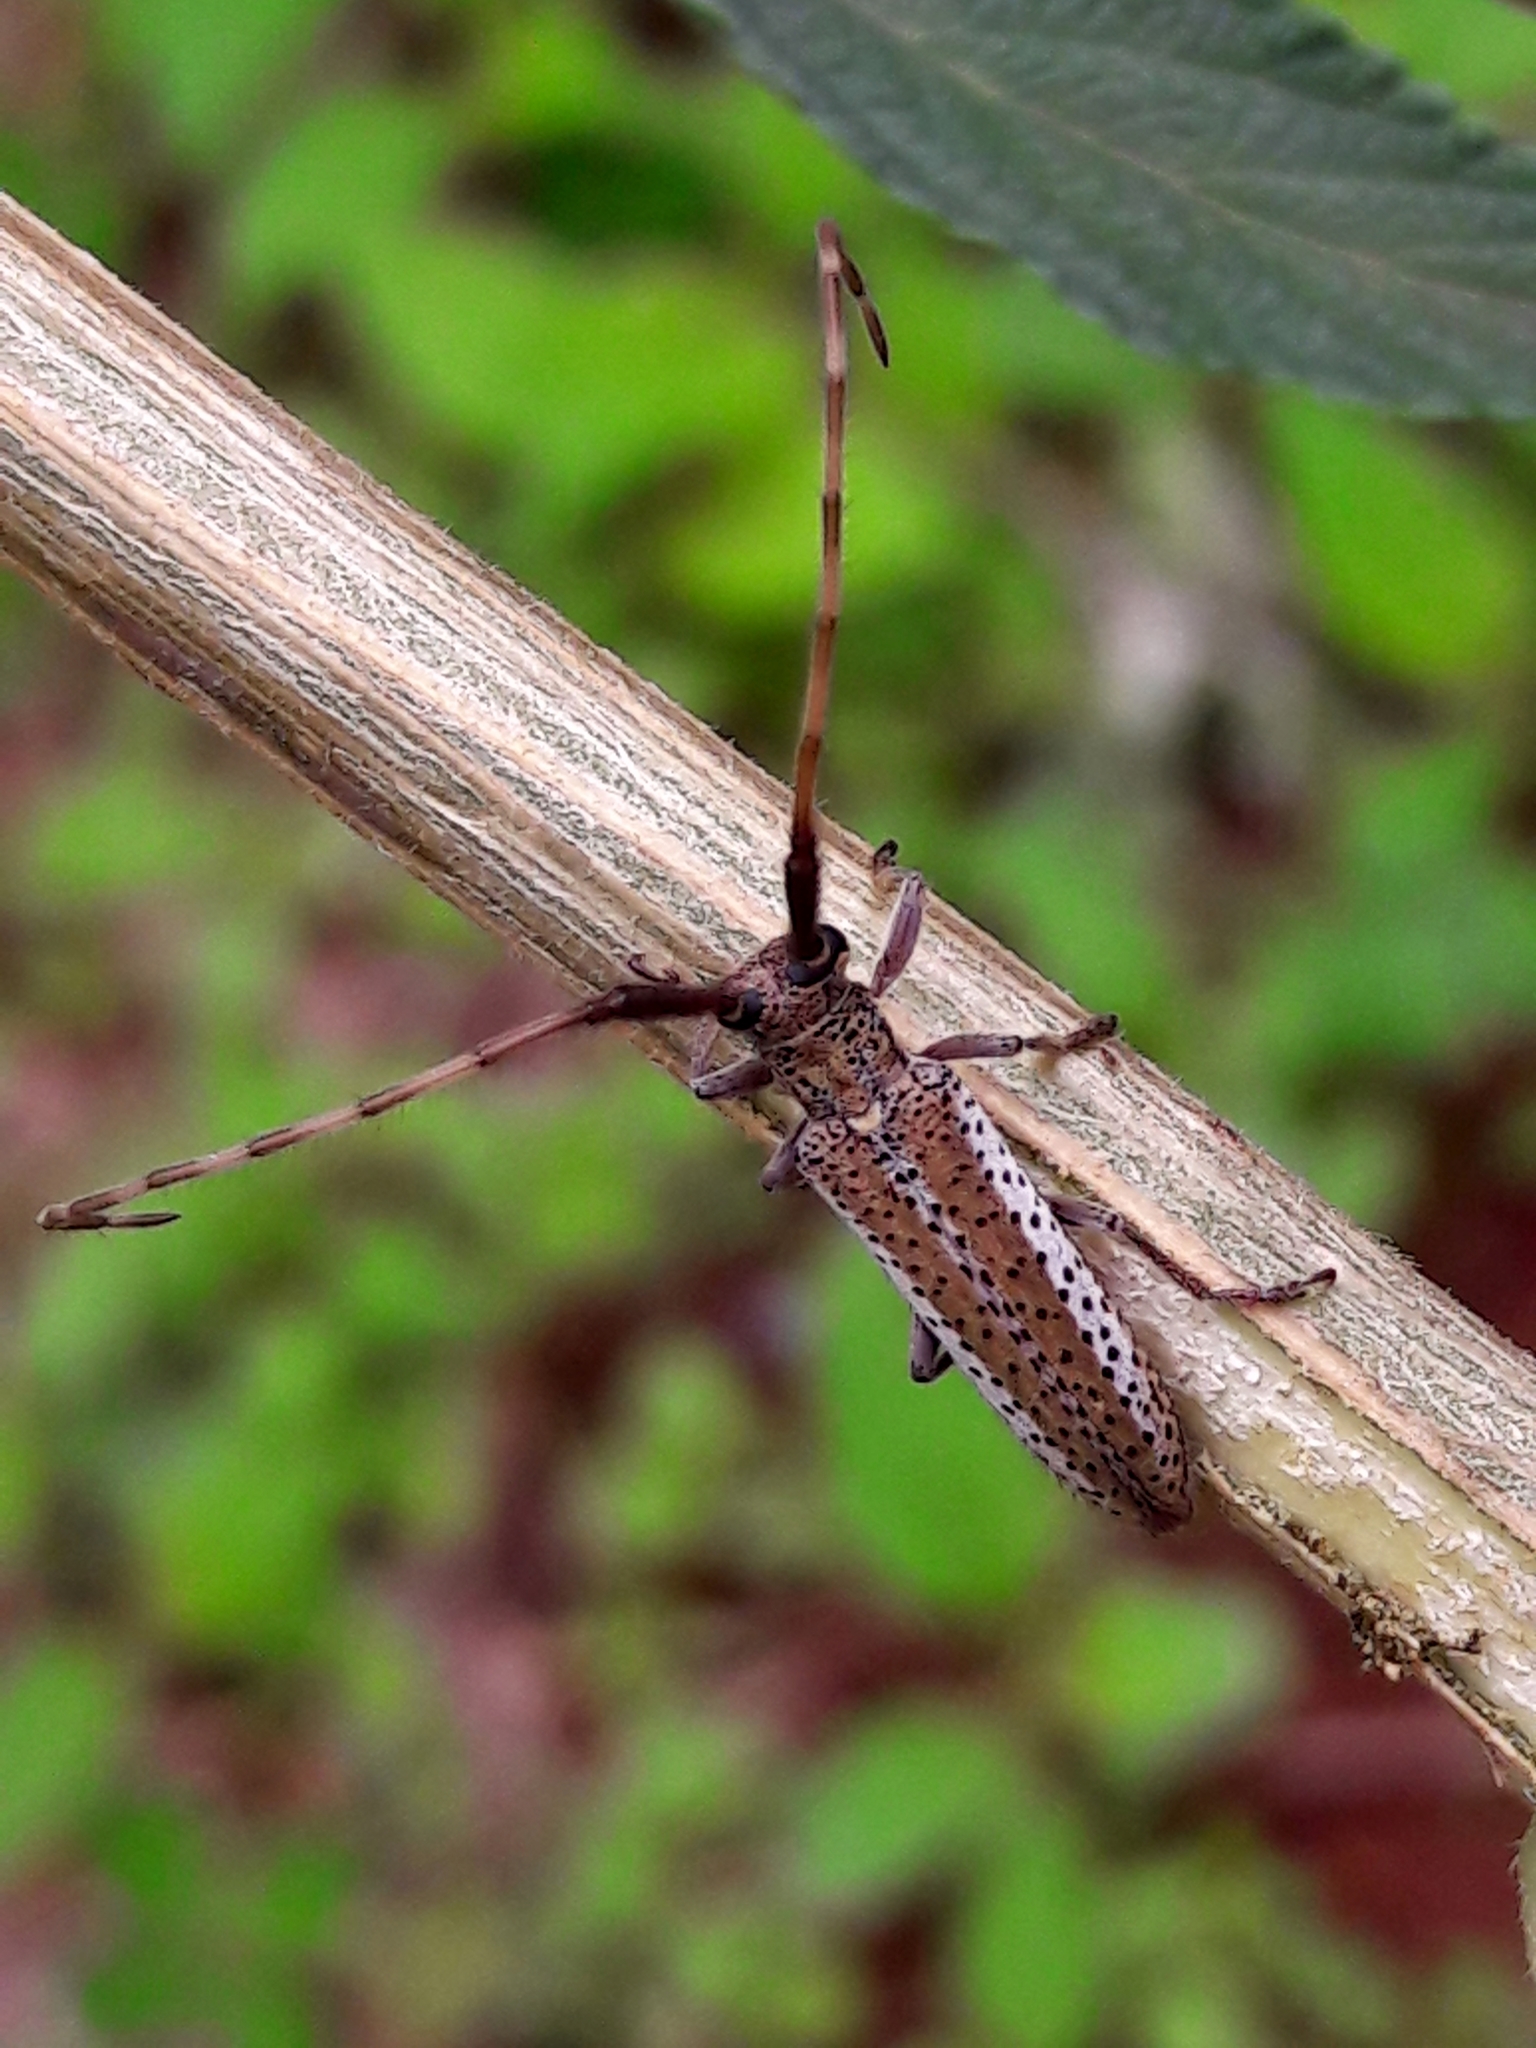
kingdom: Animalia
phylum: Arthropoda
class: Insecta
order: Coleoptera
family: Cerambycidae
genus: Holoaerenica
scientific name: Holoaerenica multipunctata
